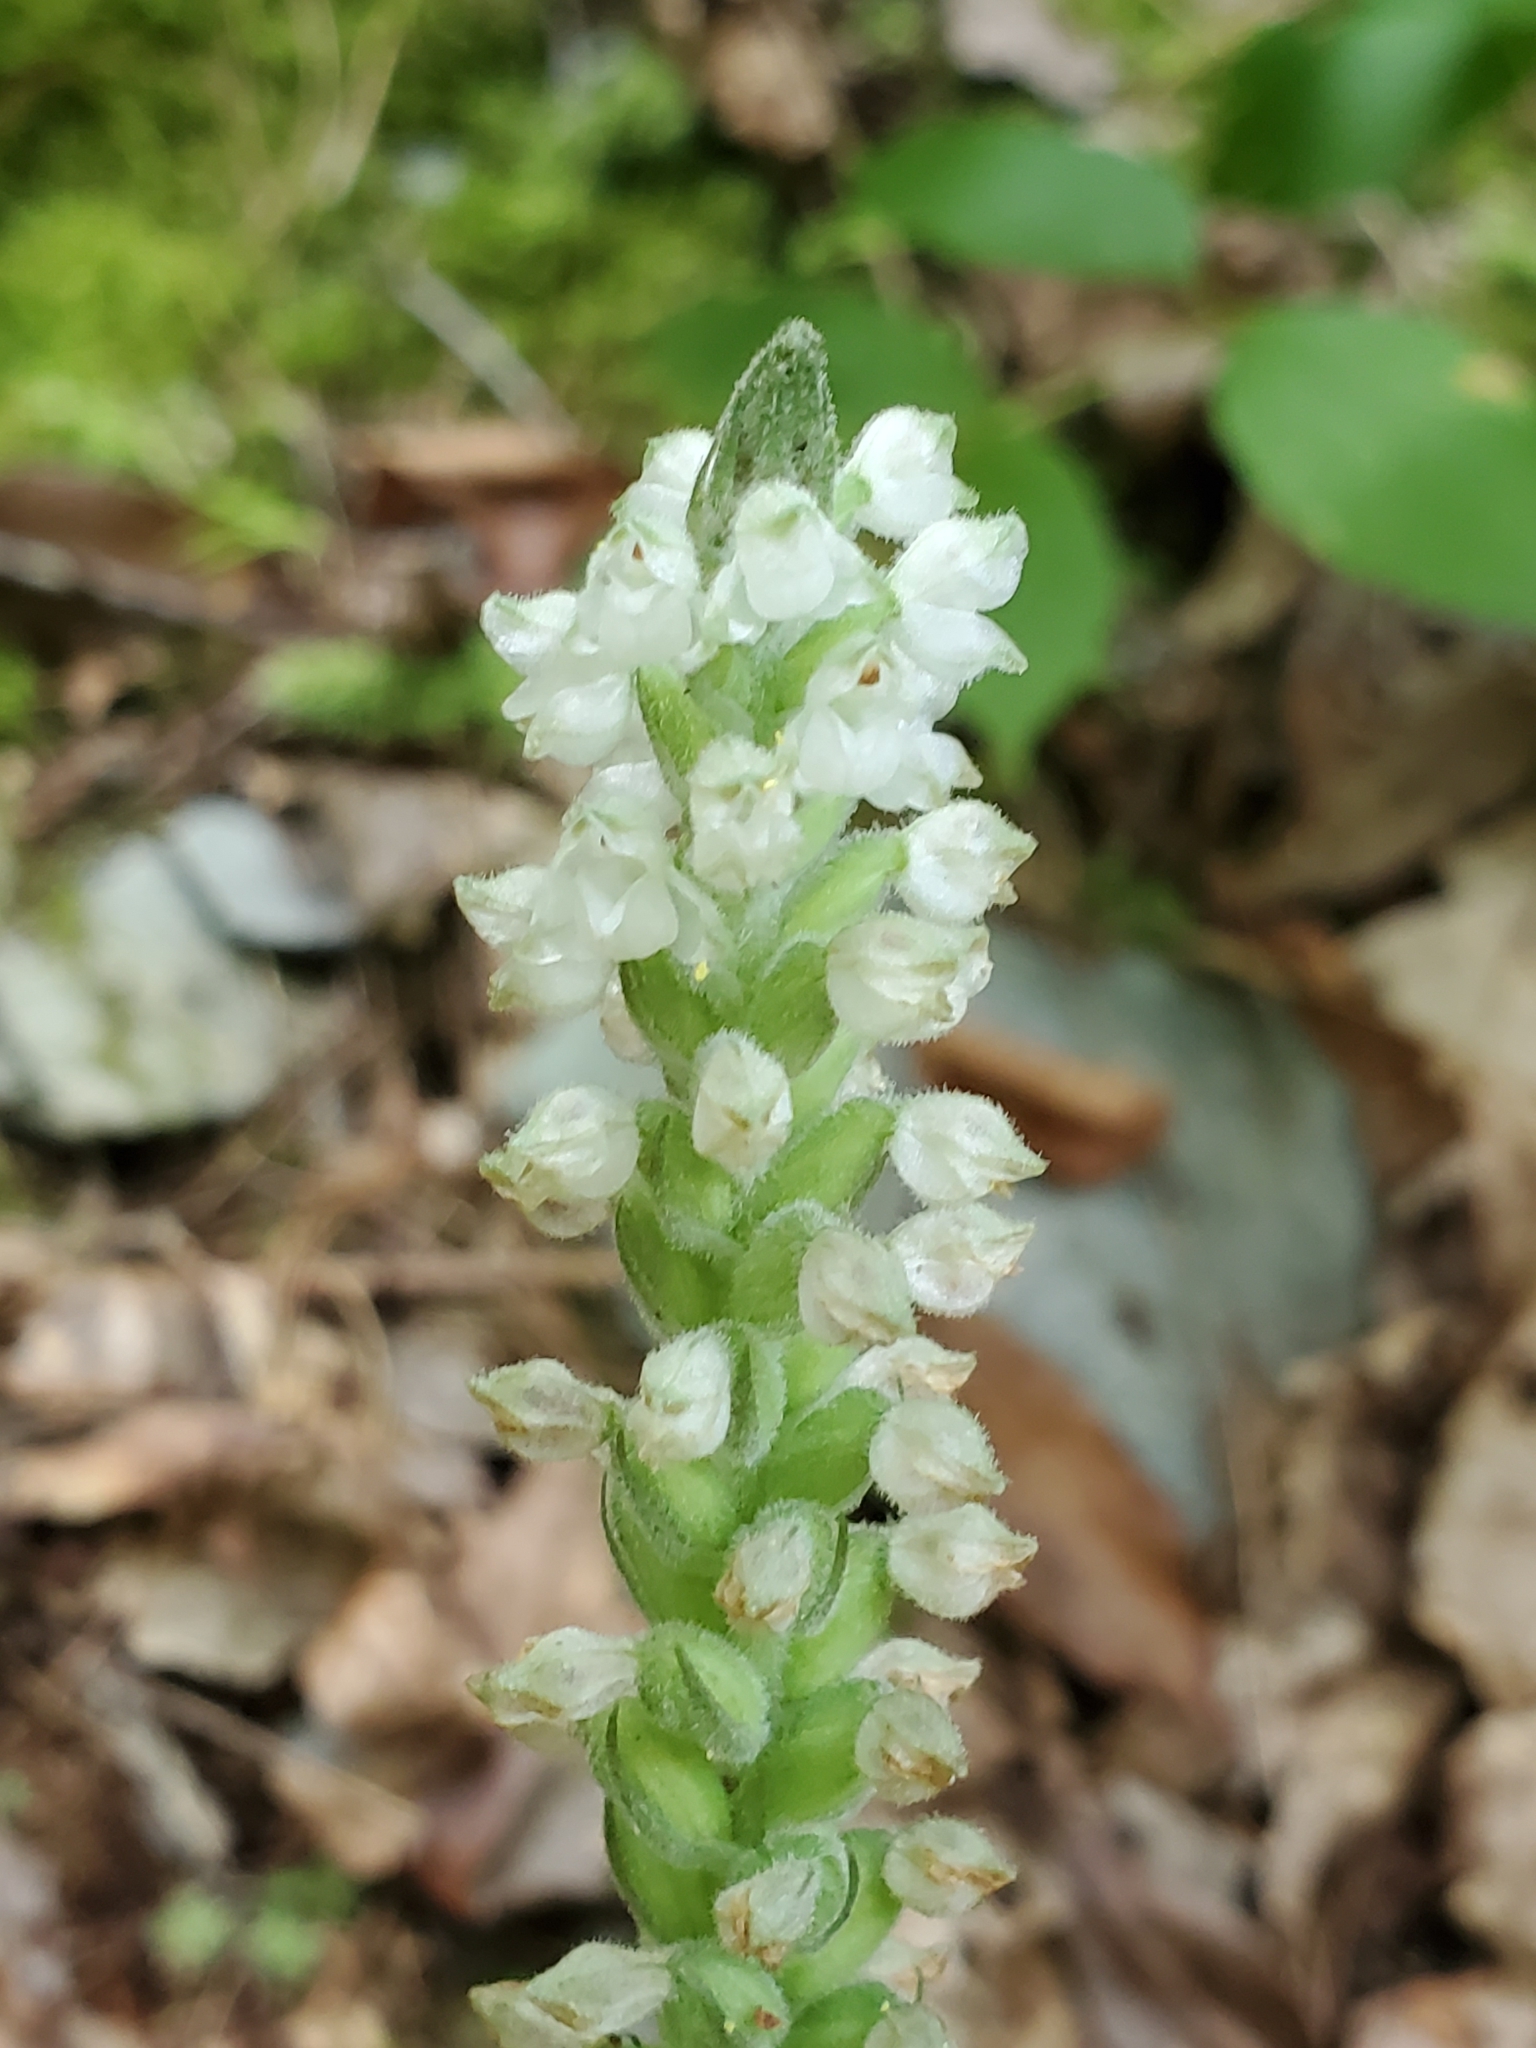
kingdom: Plantae
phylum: Tracheophyta
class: Liliopsida
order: Asparagales
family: Orchidaceae
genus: Goodyera
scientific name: Goodyera pubescens
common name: Downy rattlesnake-plantain
